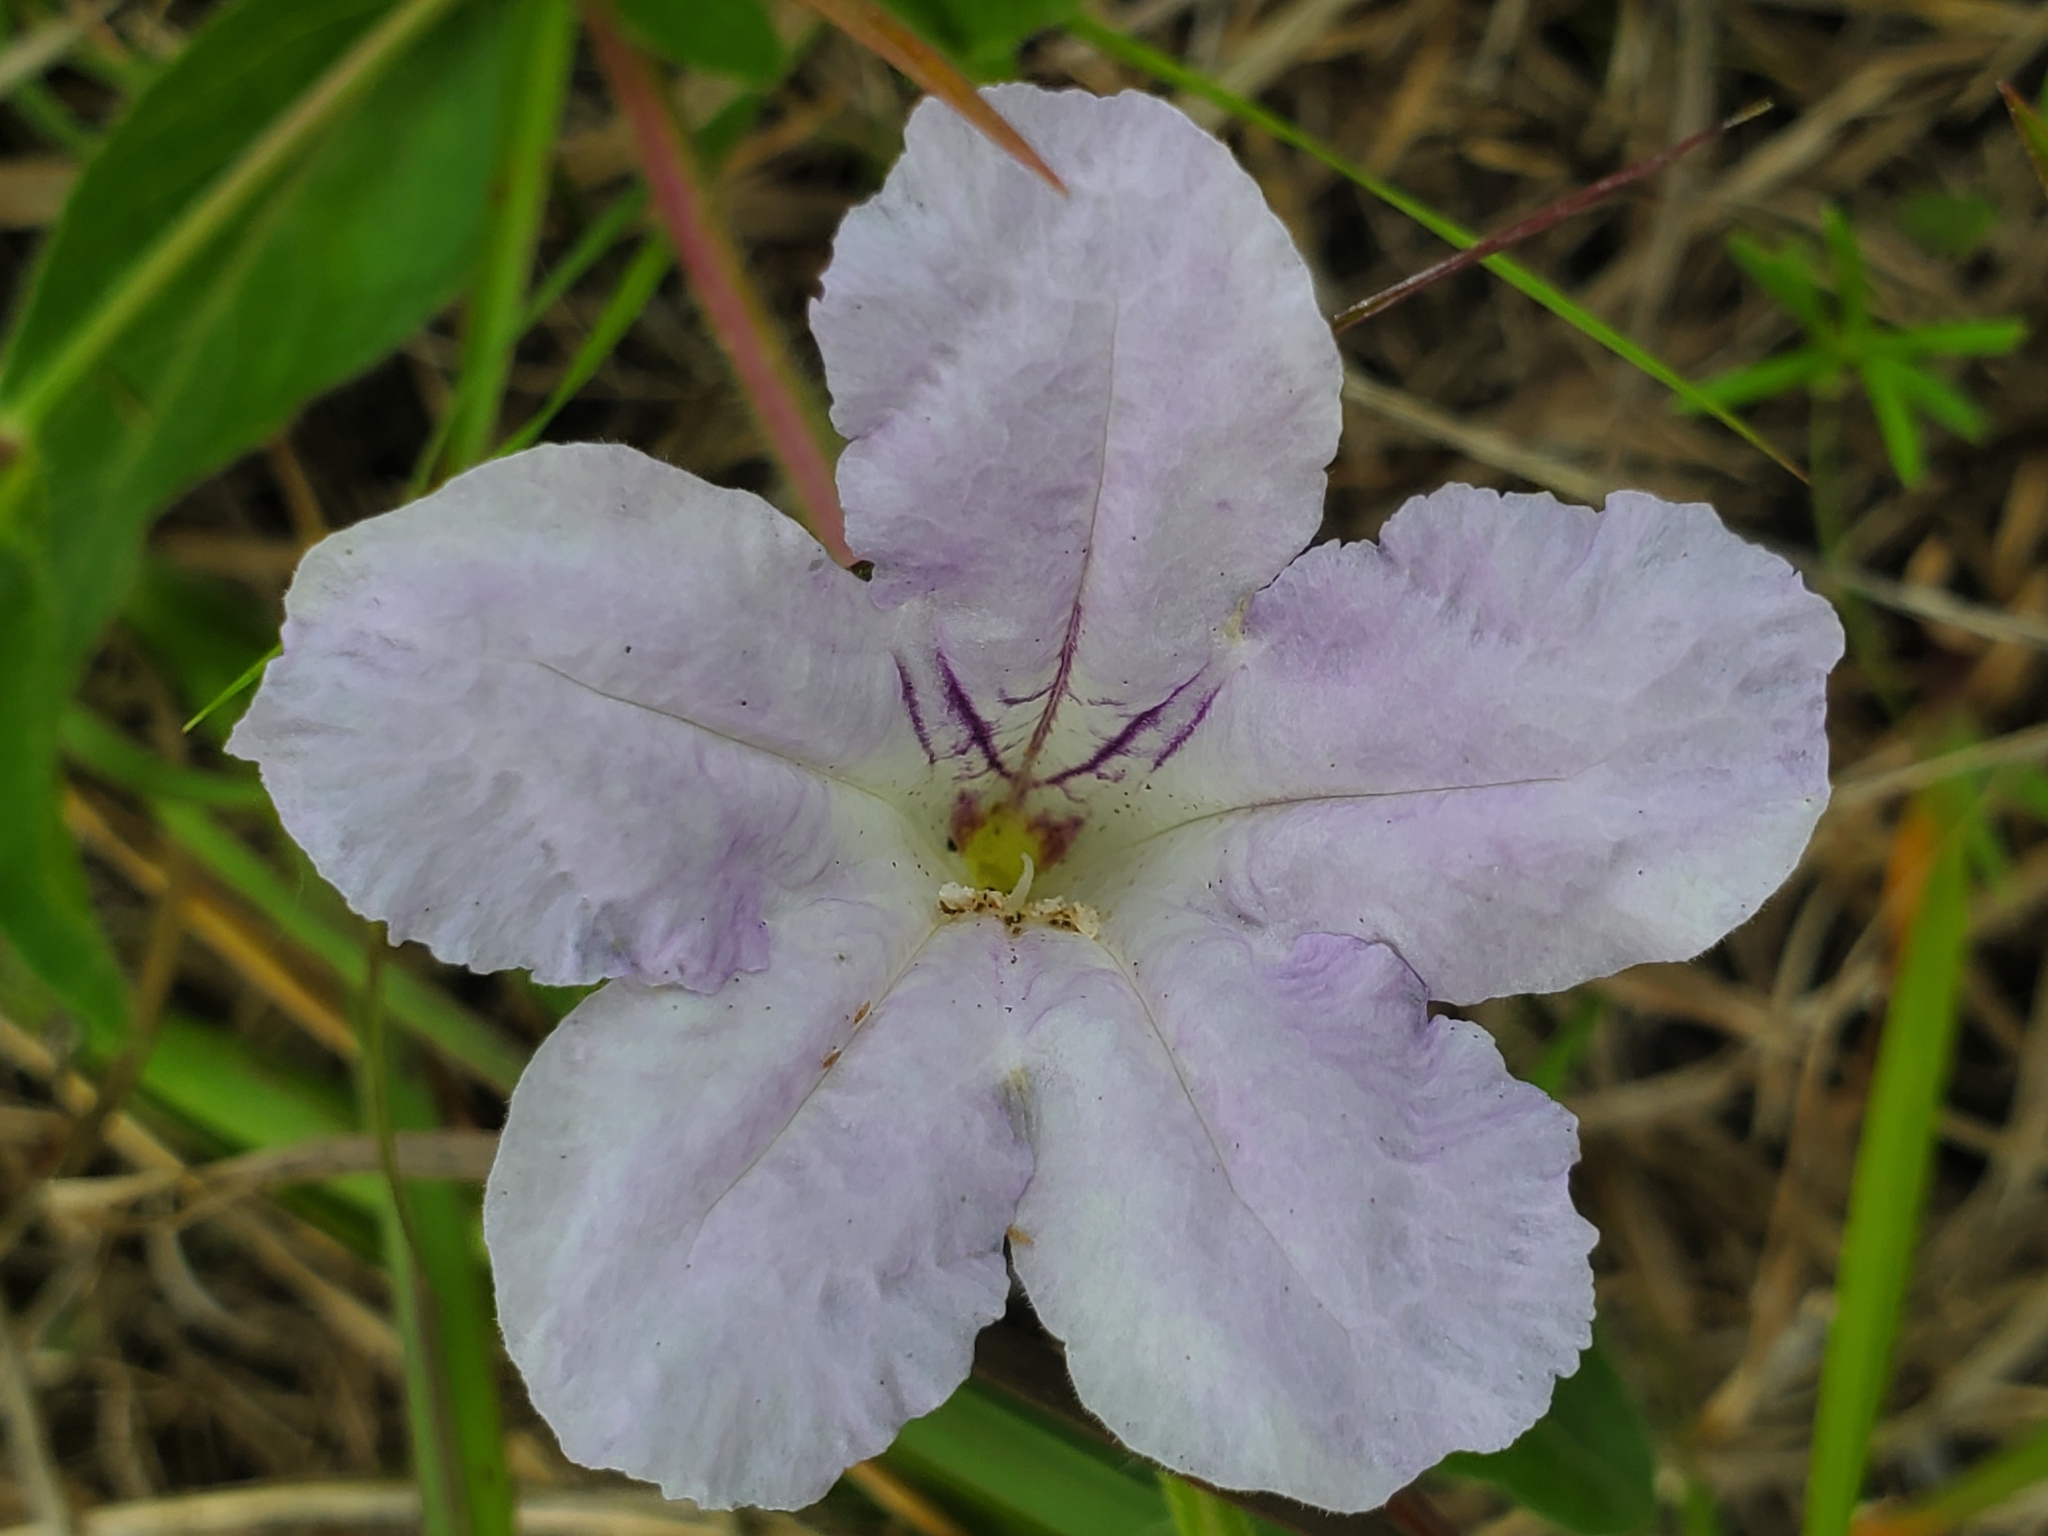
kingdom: Plantae
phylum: Tracheophyta
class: Magnoliopsida
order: Lamiales
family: Acanthaceae
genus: Ruellia
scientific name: Ruellia humilis
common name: Fringe-leaf ruellia
